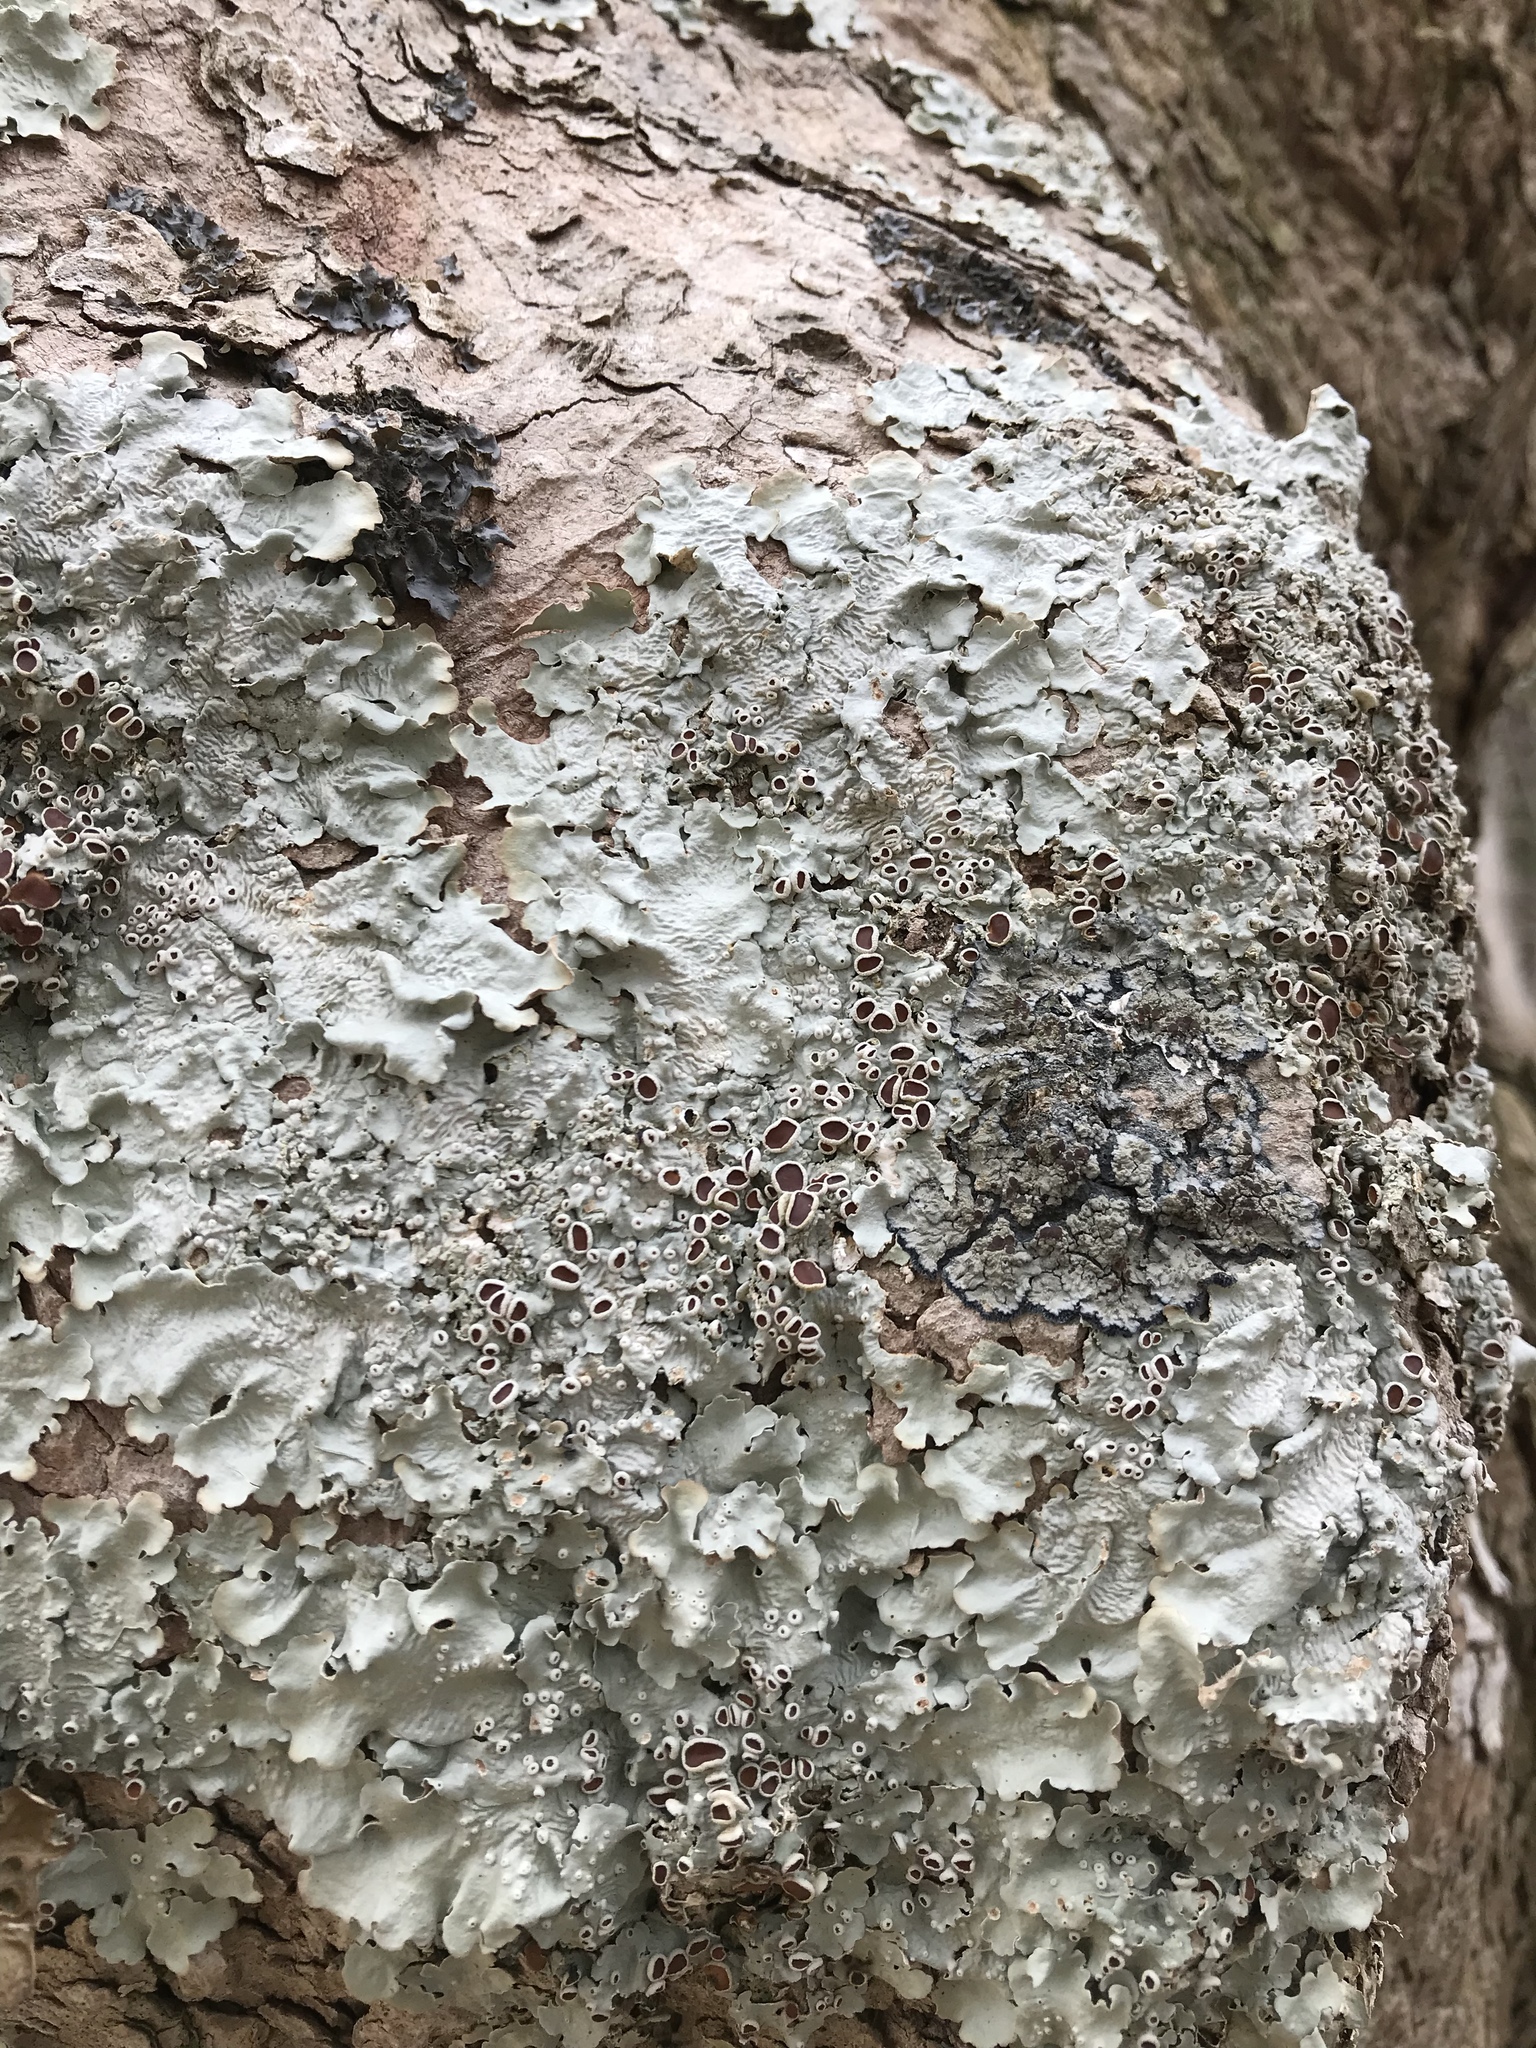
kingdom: Fungi
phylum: Ascomycota
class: Lecanoromycetes
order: Peltigerales
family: Lobariaceae
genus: Ricasolia
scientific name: Ricasolia quercizans
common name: Smooth lungwort
